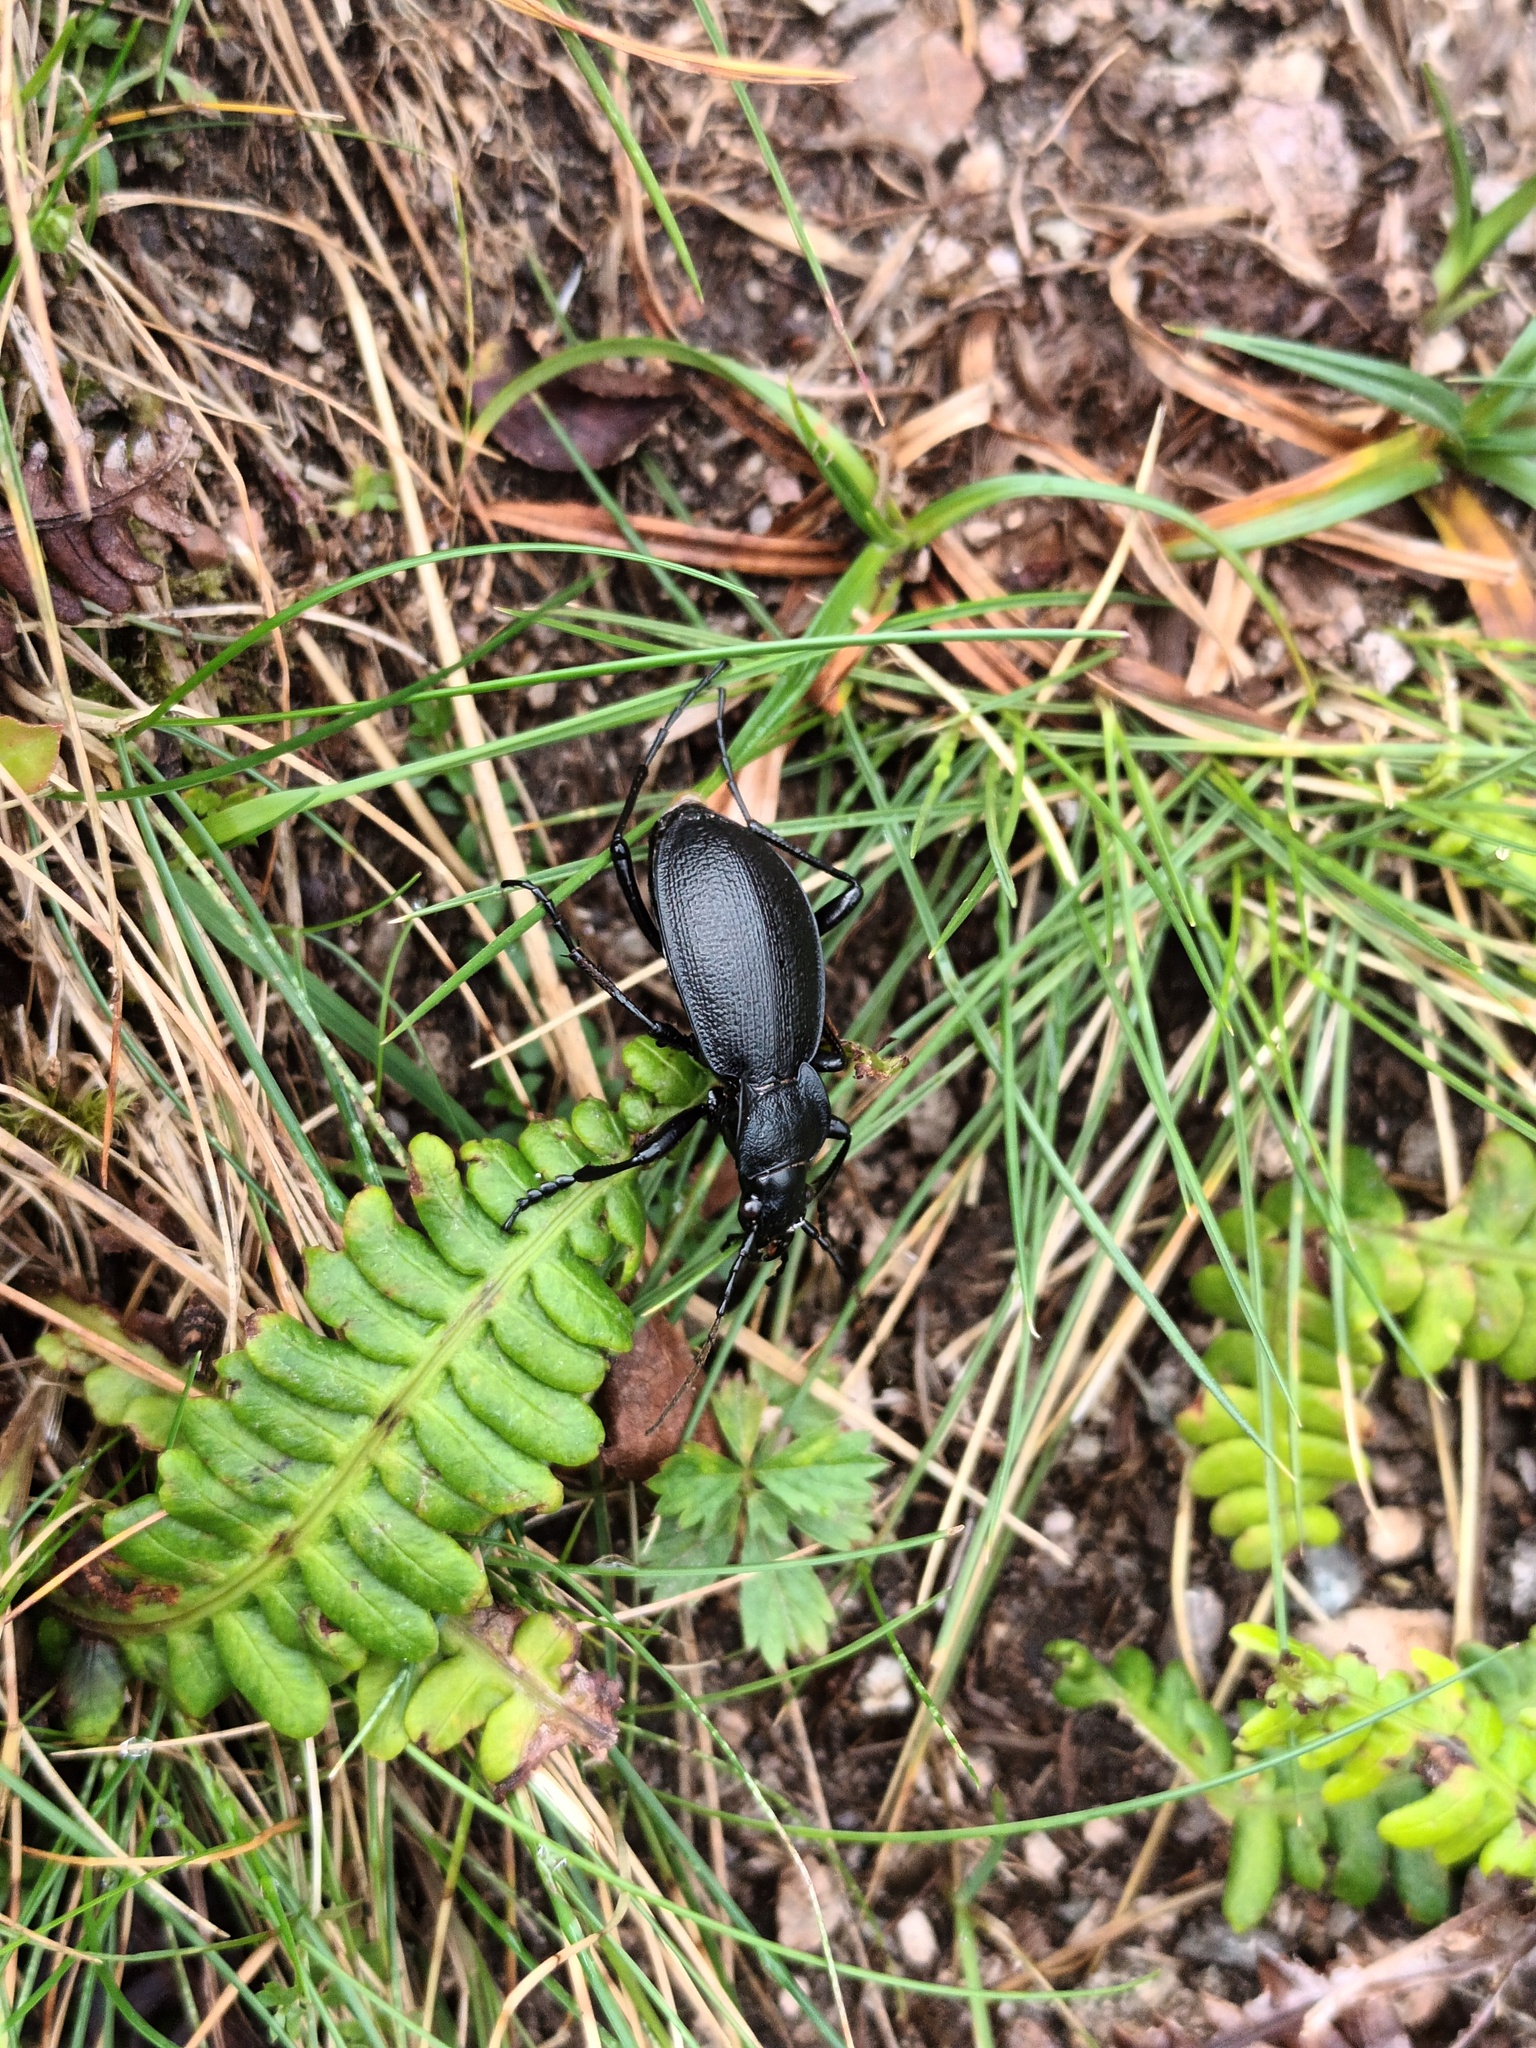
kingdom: Animalia
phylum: Arthropoda
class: Insecta
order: Coleoptera
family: Carabidae
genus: Carabus
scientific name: Carabus problematicus
